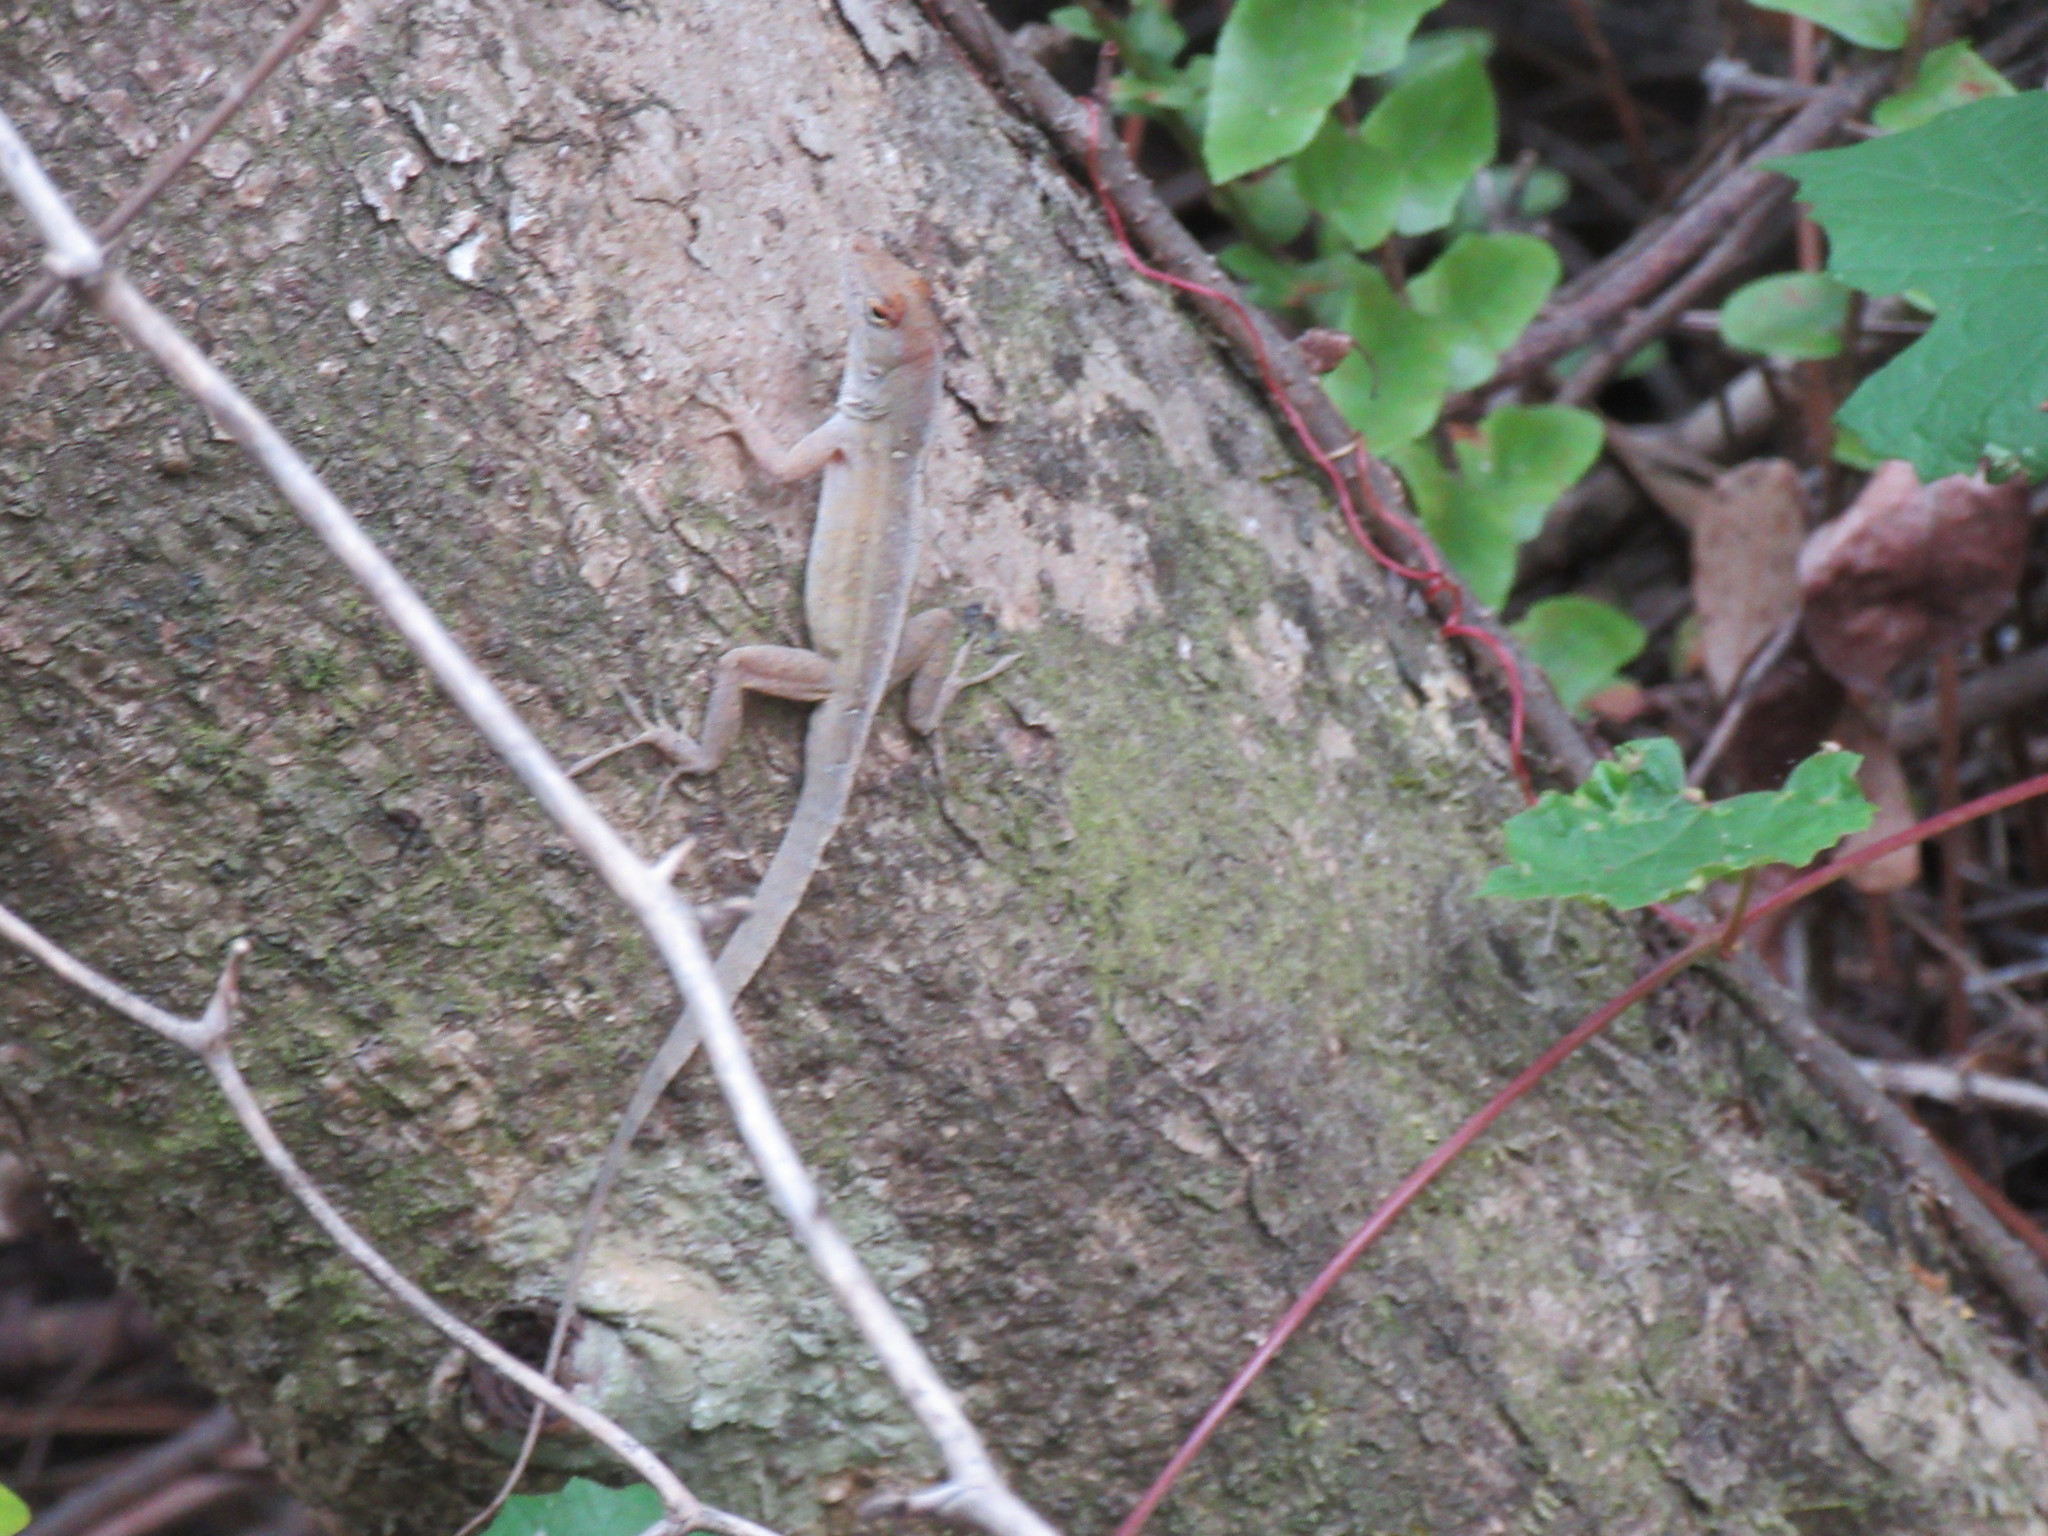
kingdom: Animalia
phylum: Chordata
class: Squamata
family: Dactyloidae
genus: Anolis
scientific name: Anolis sagrei
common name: Brown anole
